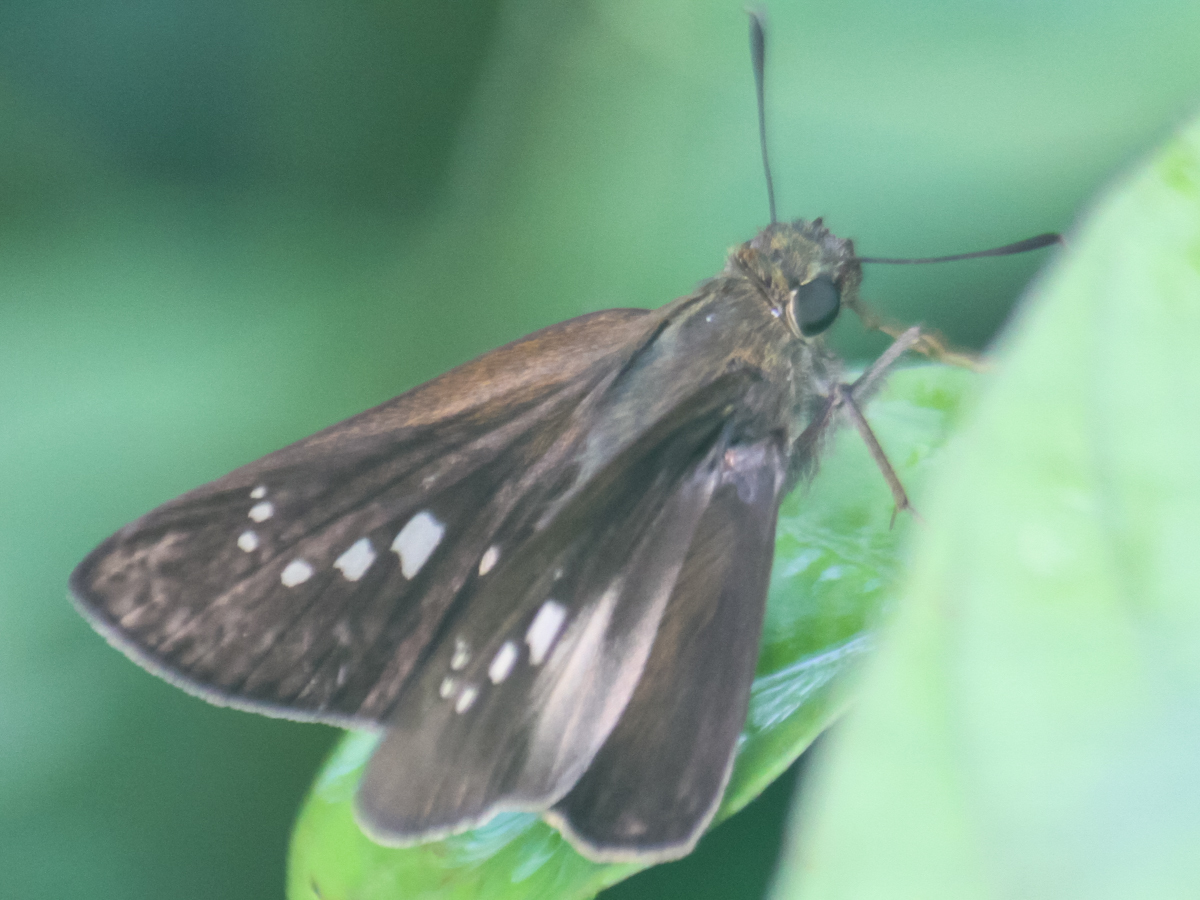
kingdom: Animalia
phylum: Arthropoda
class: Insecta
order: Lepidoptera
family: Hesperiidae
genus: Borbo
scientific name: Borbo cinnara
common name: Formosan swift
